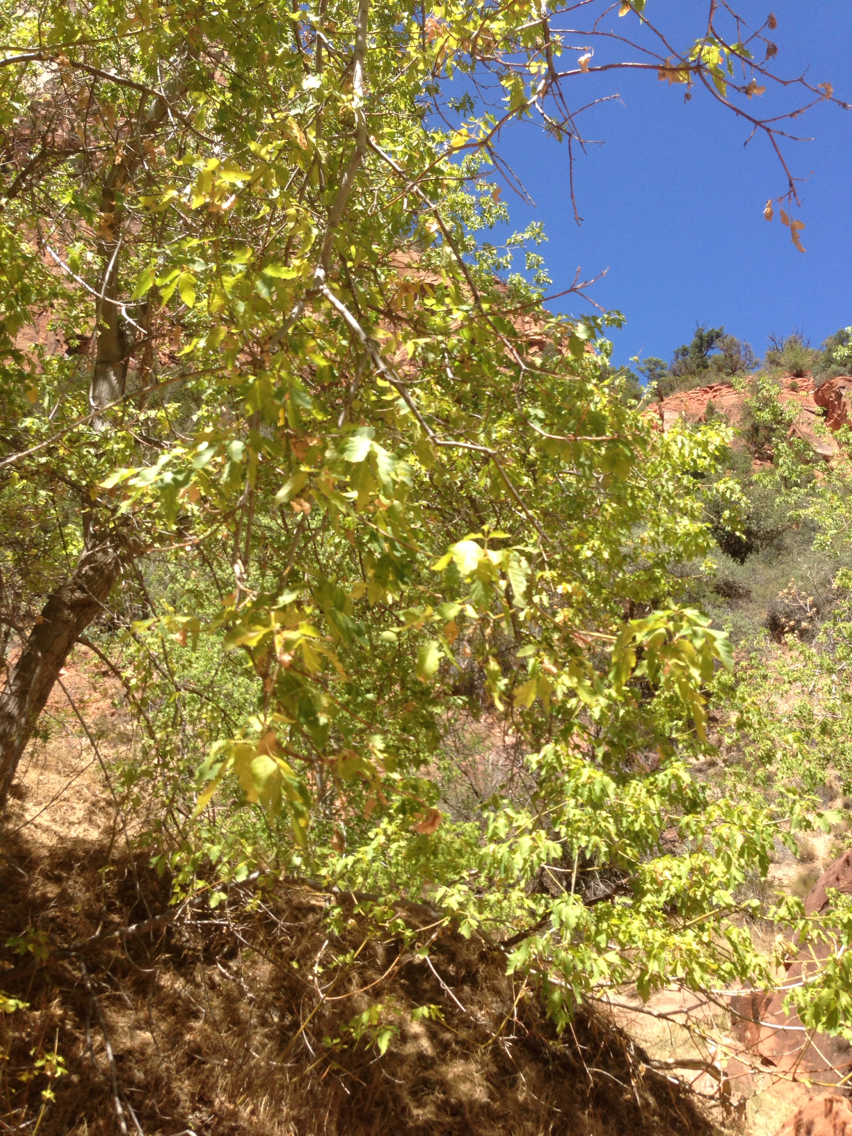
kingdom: Plantae
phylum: Tracheophyta
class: Magnoliopsida
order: Sapindales
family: Sapindaceae
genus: Acer
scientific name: Acer negundo
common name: Ashleaf maple
